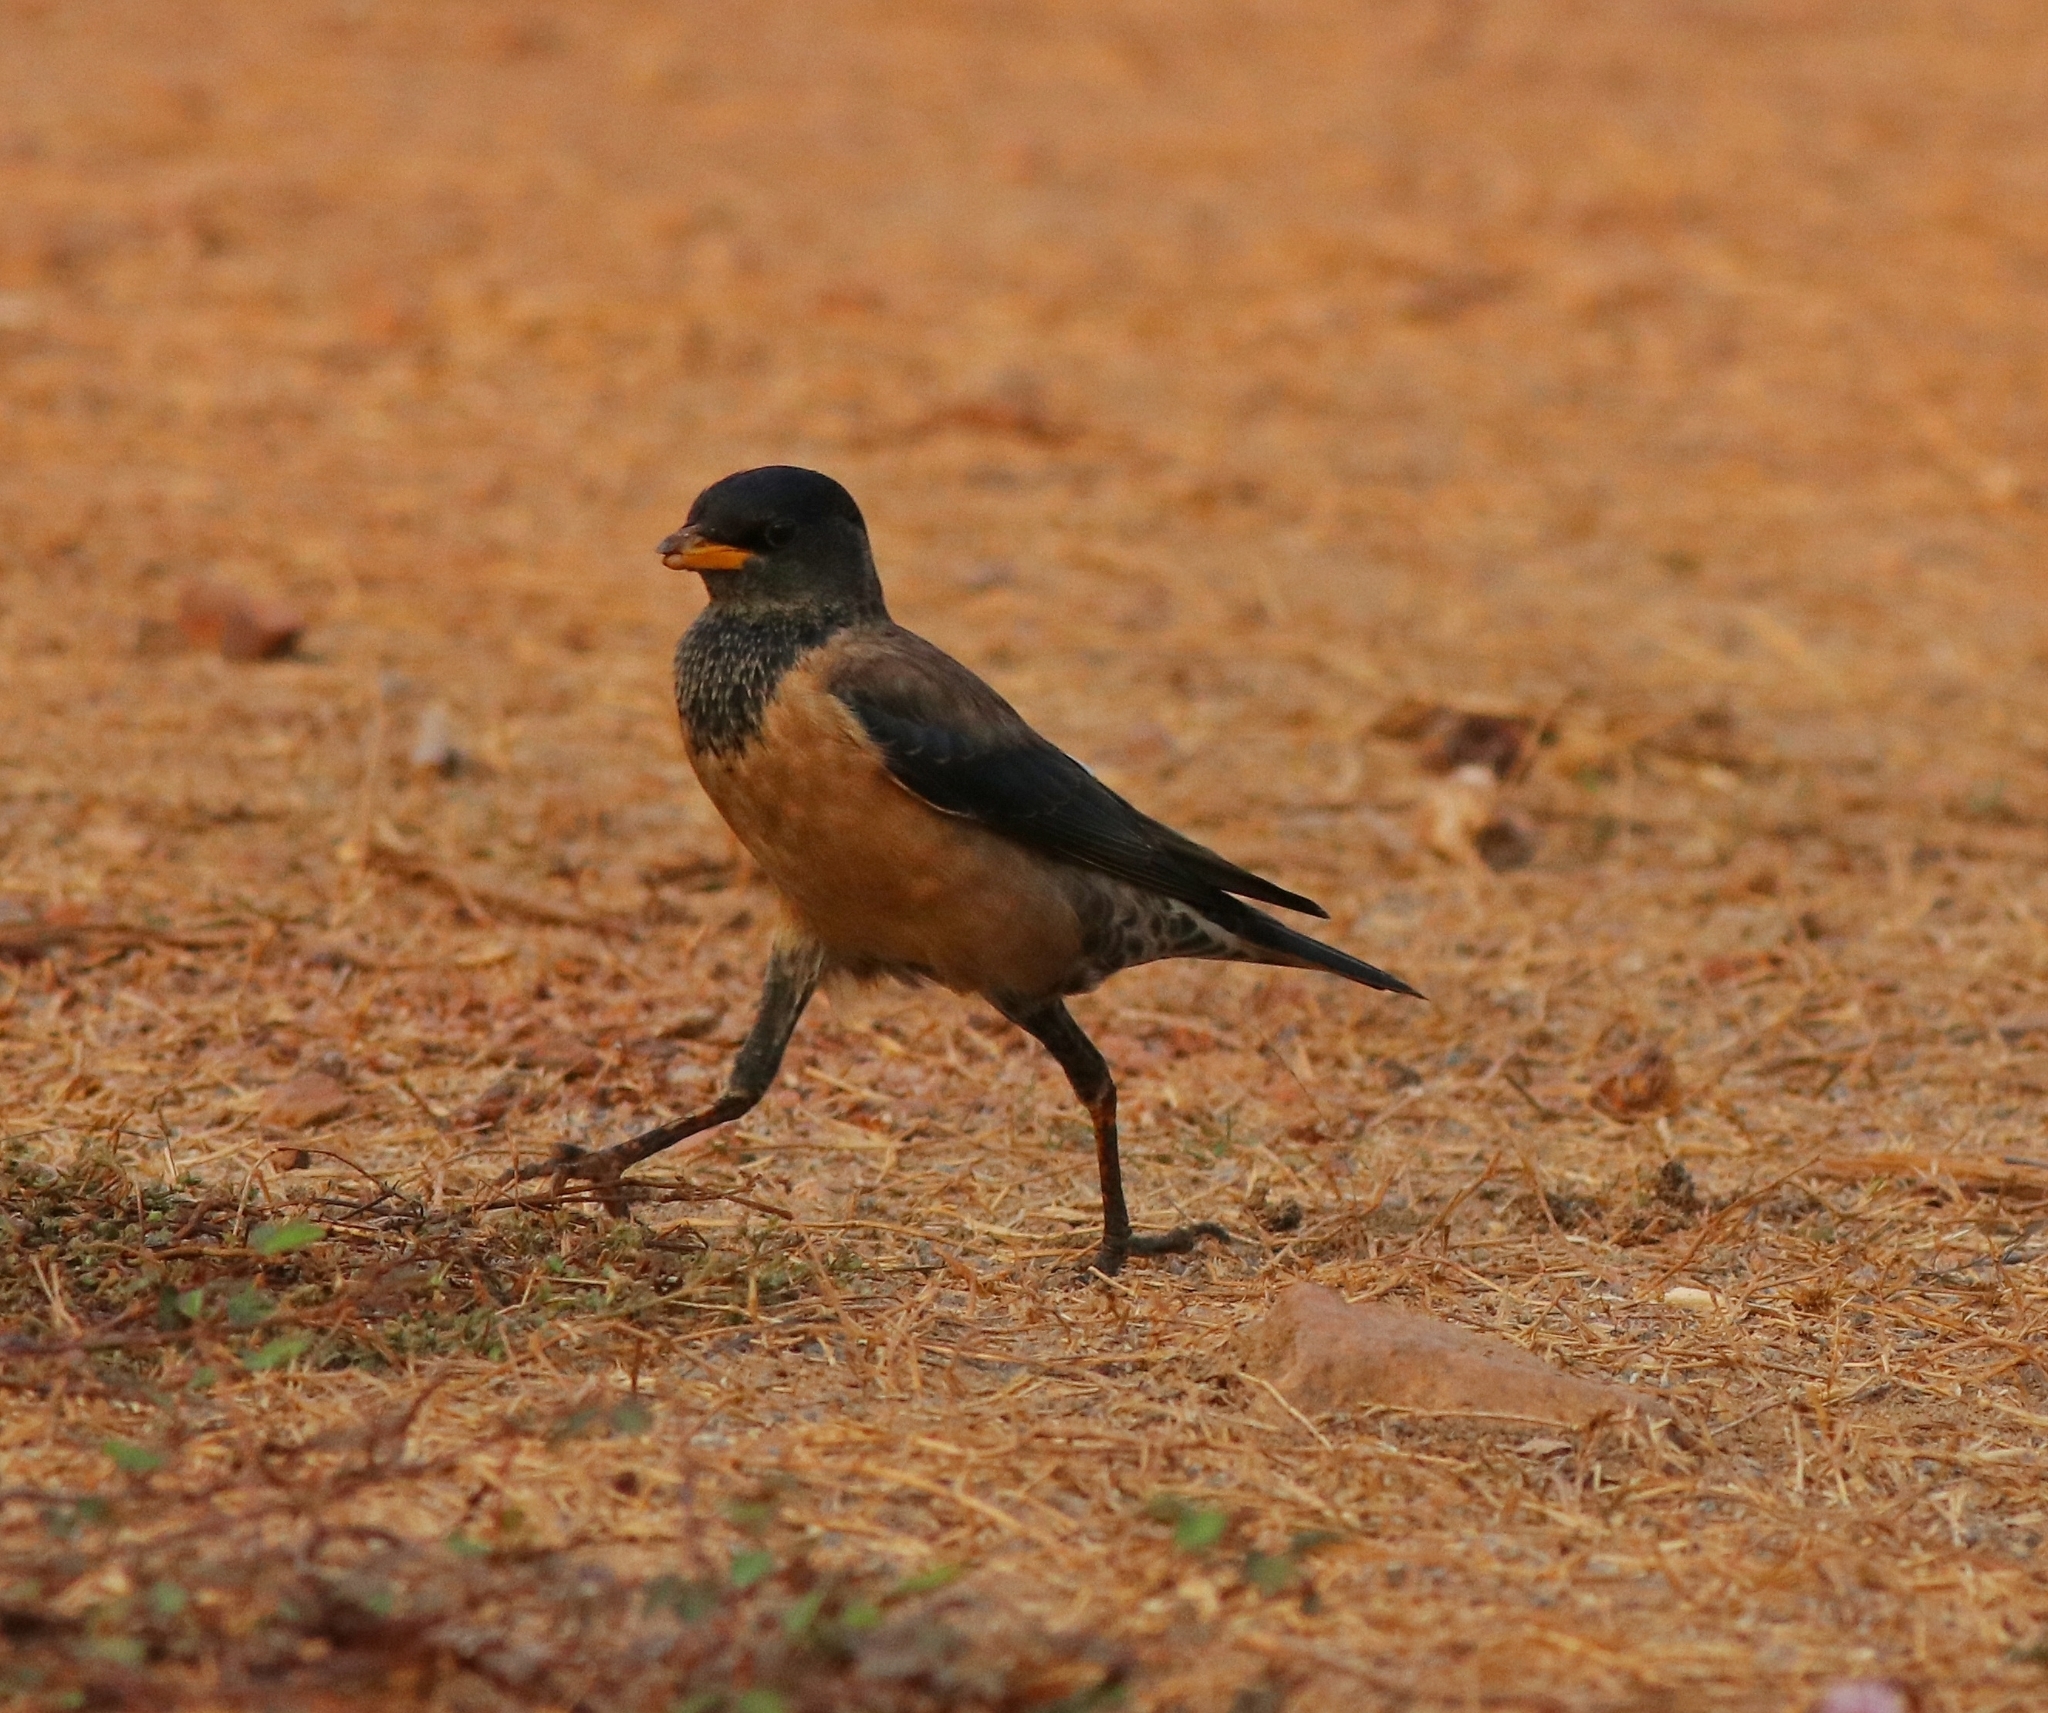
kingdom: Animalia
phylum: Chordata
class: Aves
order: Passeriformes
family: Sturnidae
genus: Pastor
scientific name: Pastor roseus
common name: Rosy starling
